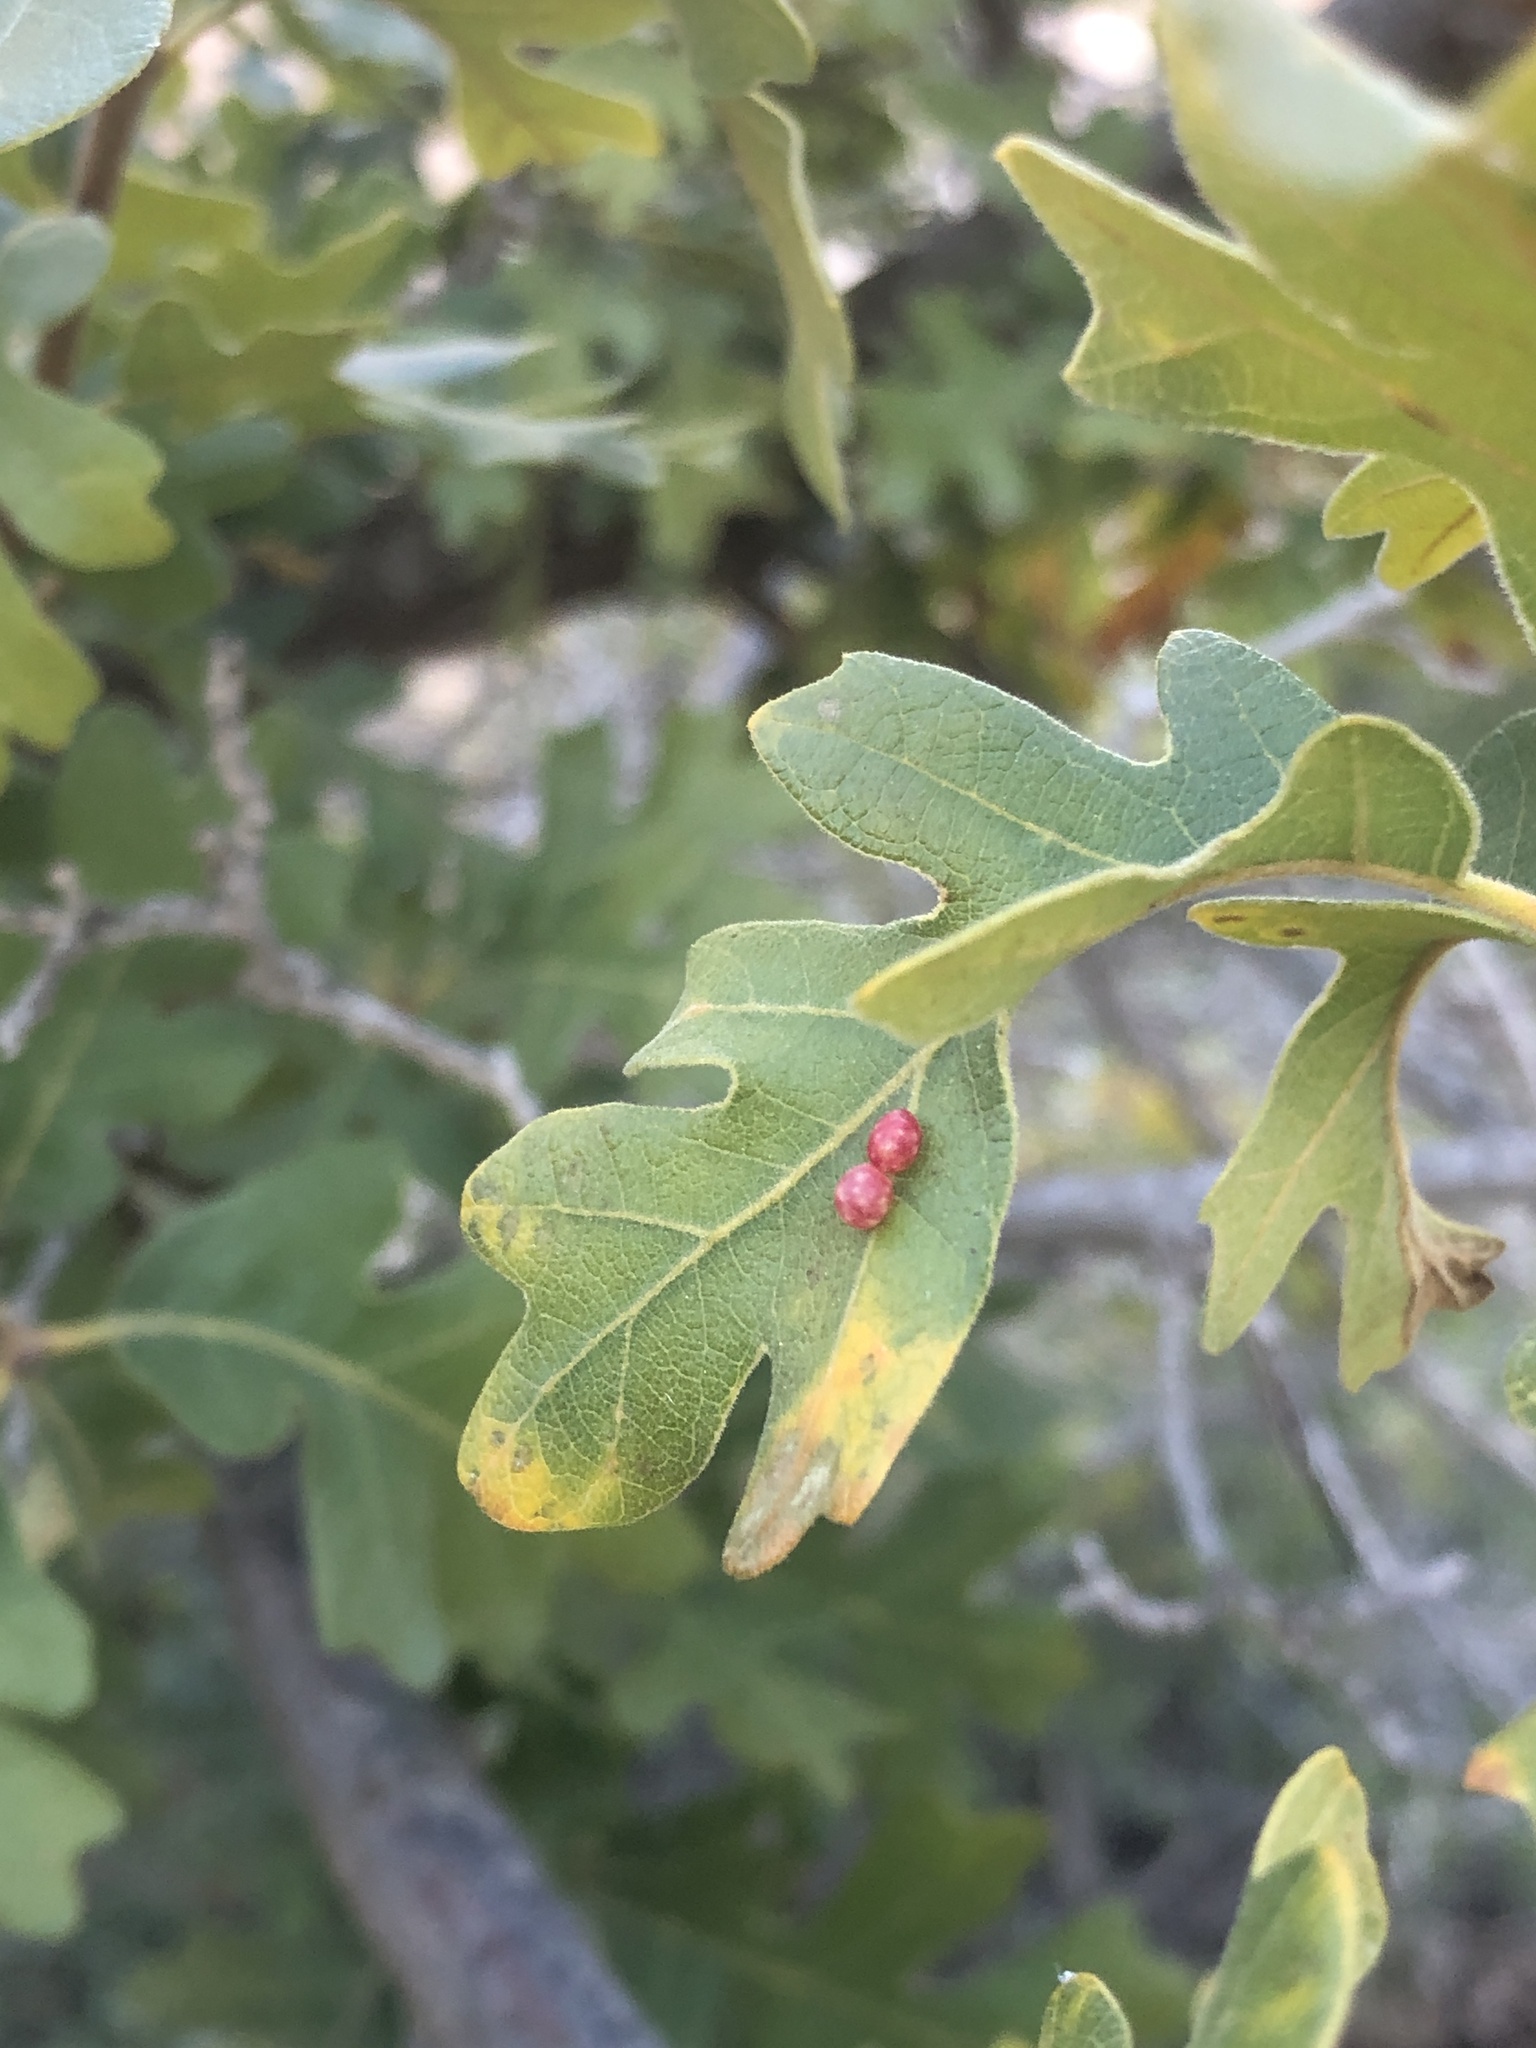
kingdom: Animalia
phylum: Arthropoda
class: Insecta
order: Hymenoptera
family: Cynipidae
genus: Trigonaspis
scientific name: Trigonaspis
